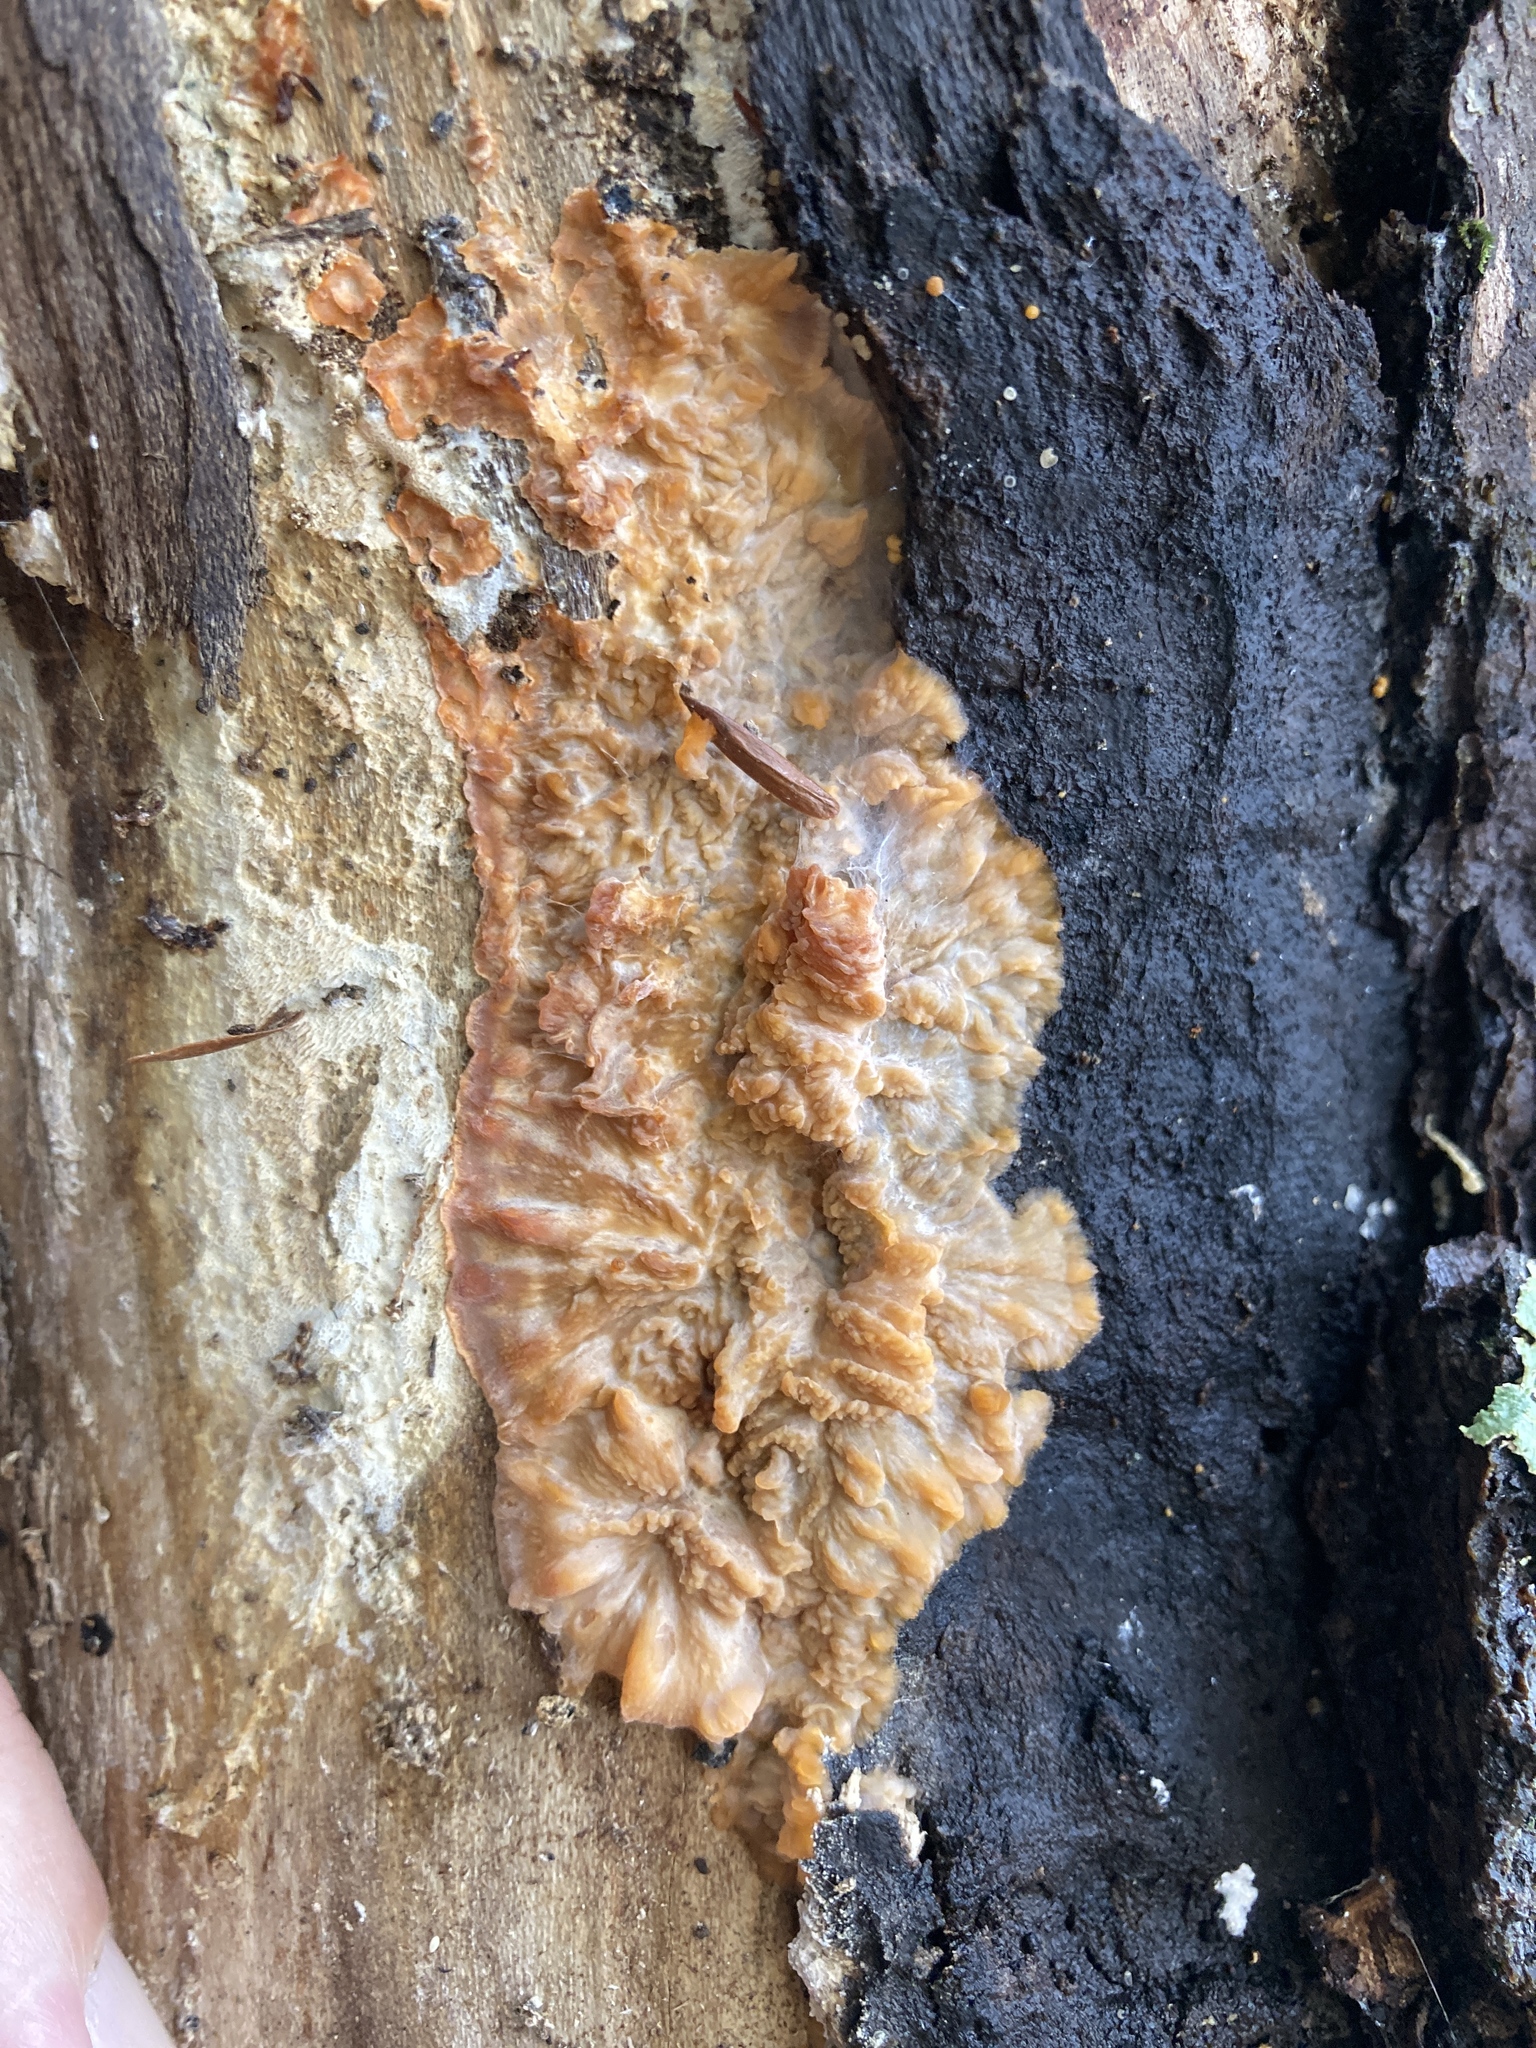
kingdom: Fungi
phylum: Basidiomycota
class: Agaricomycetes
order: Polyporales
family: Meruliaceae
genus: Phlebia
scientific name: Phlebia radiata
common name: Wrinkled crust
